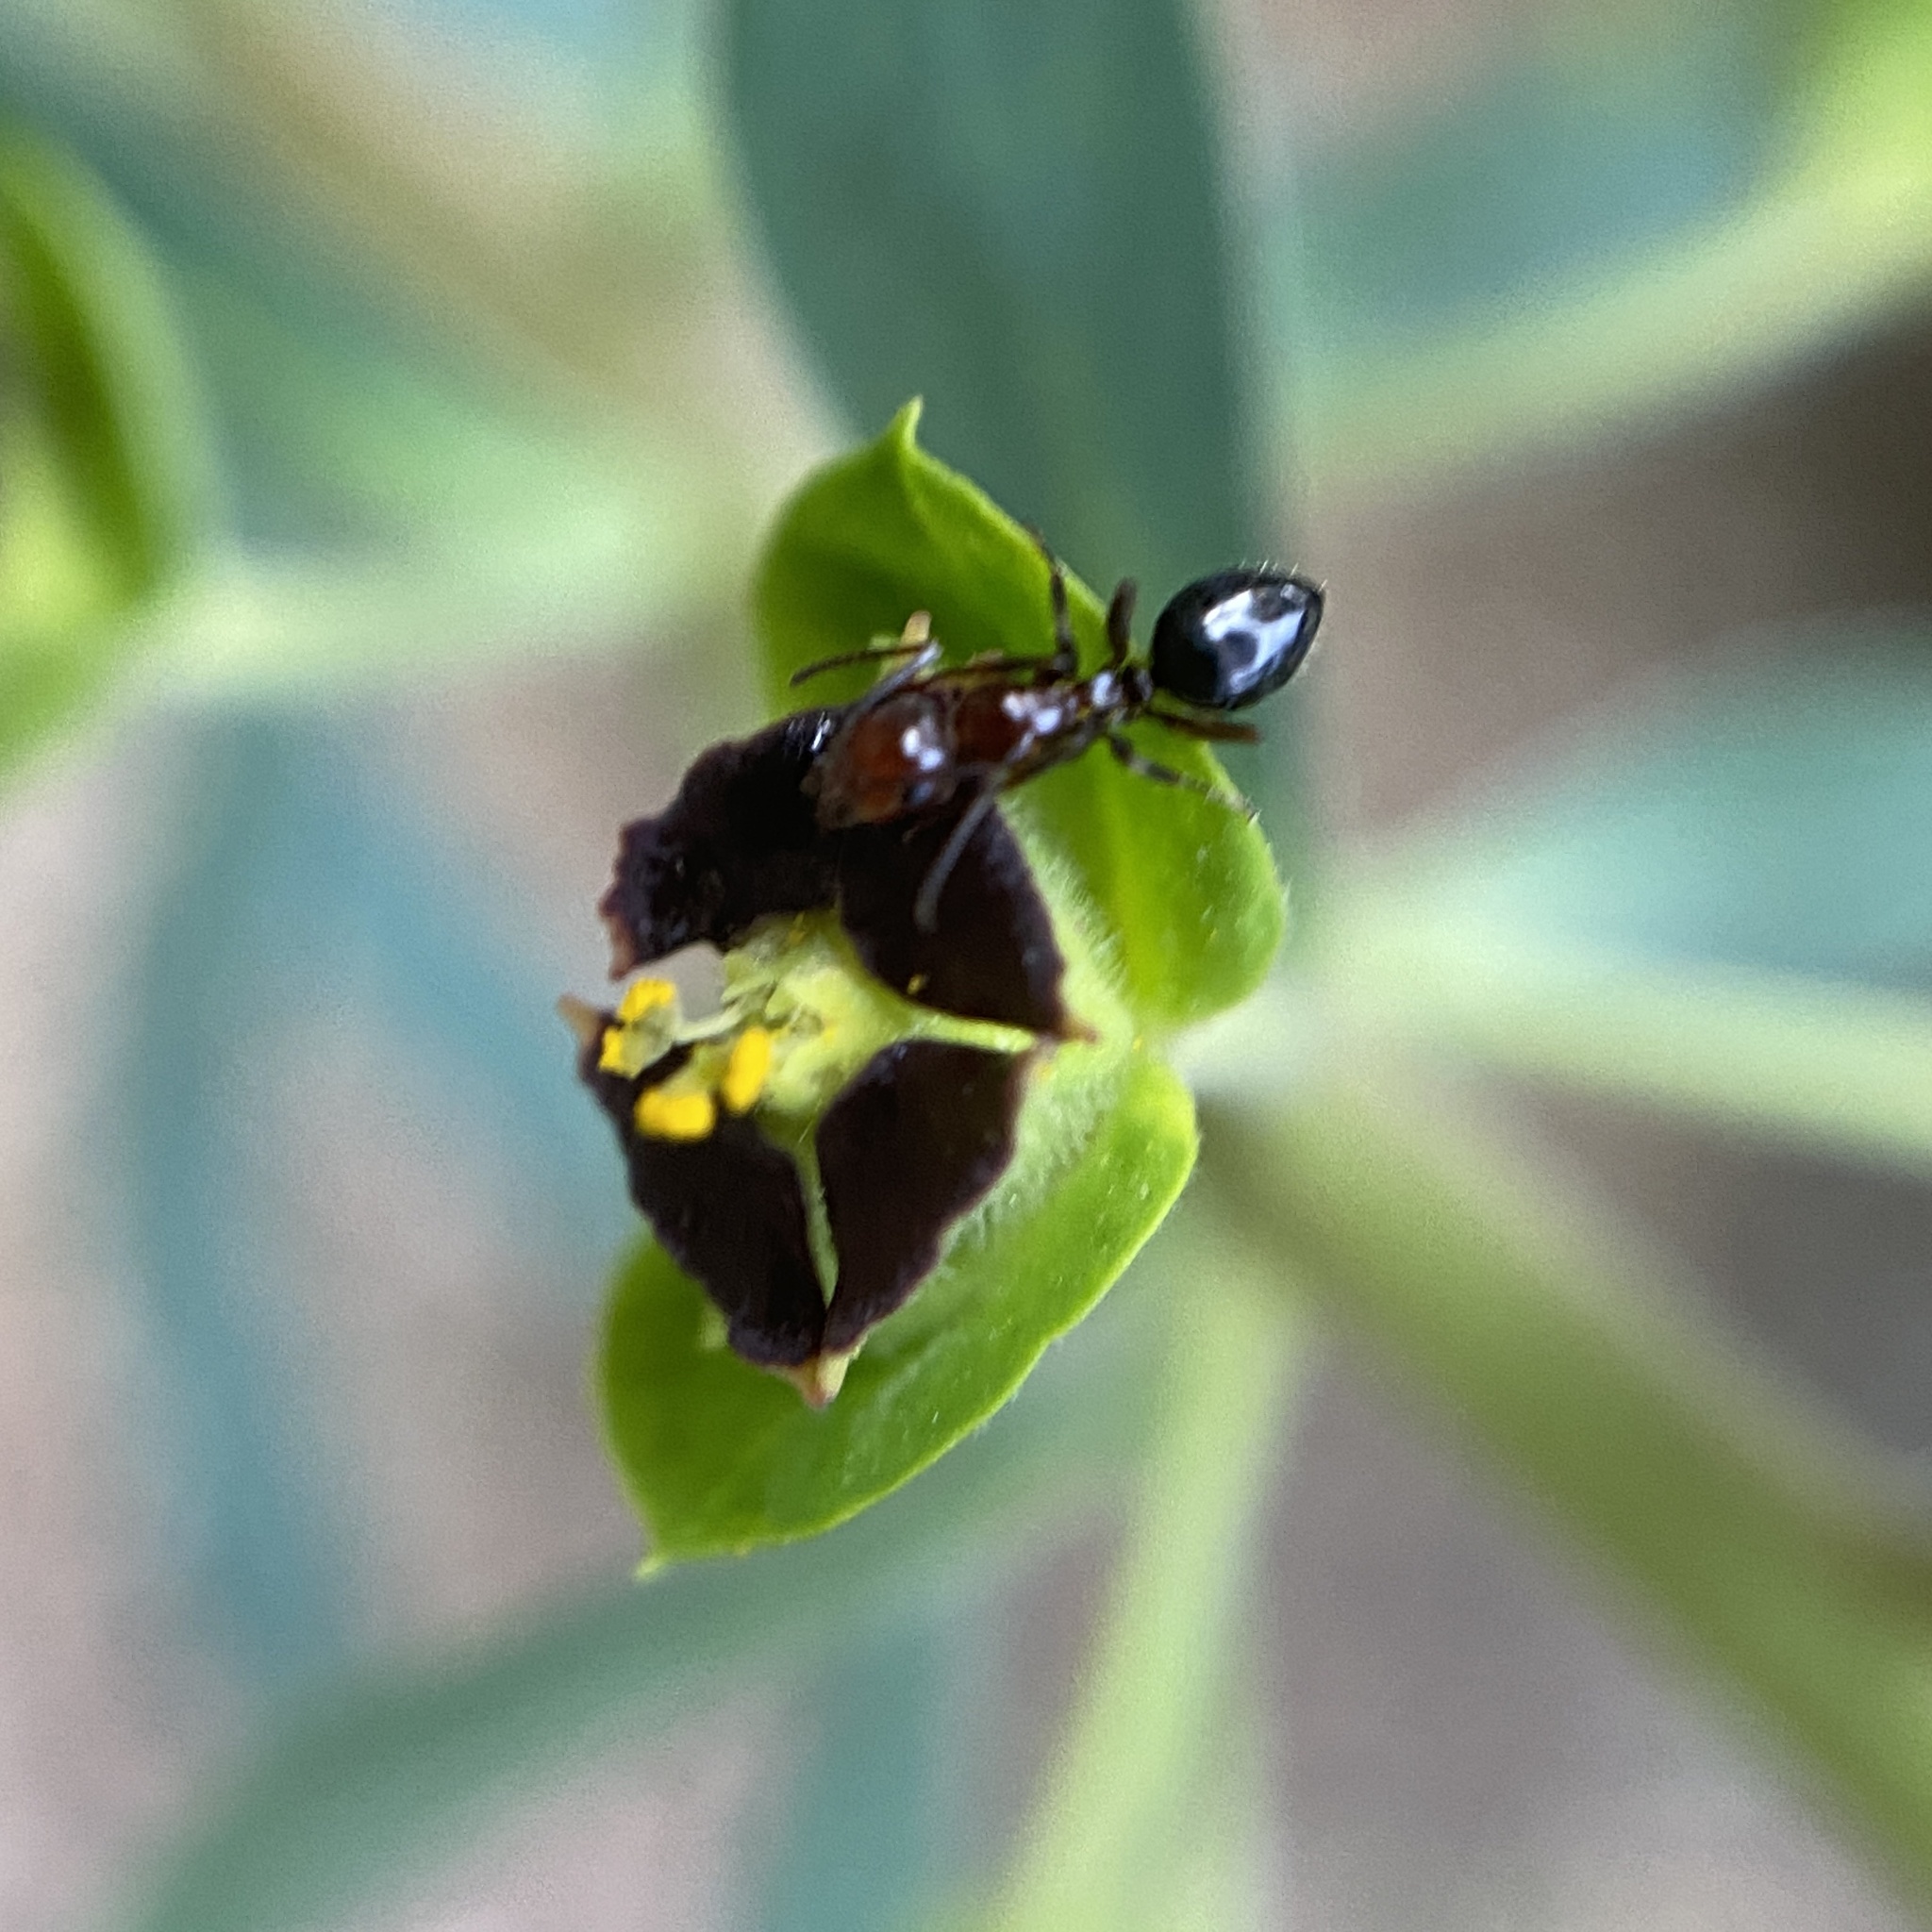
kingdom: Animalia
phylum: Arthropoda
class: Insecta
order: Hymenoptera
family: Formicidae
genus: Camponotus
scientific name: Camponotus lateralis
